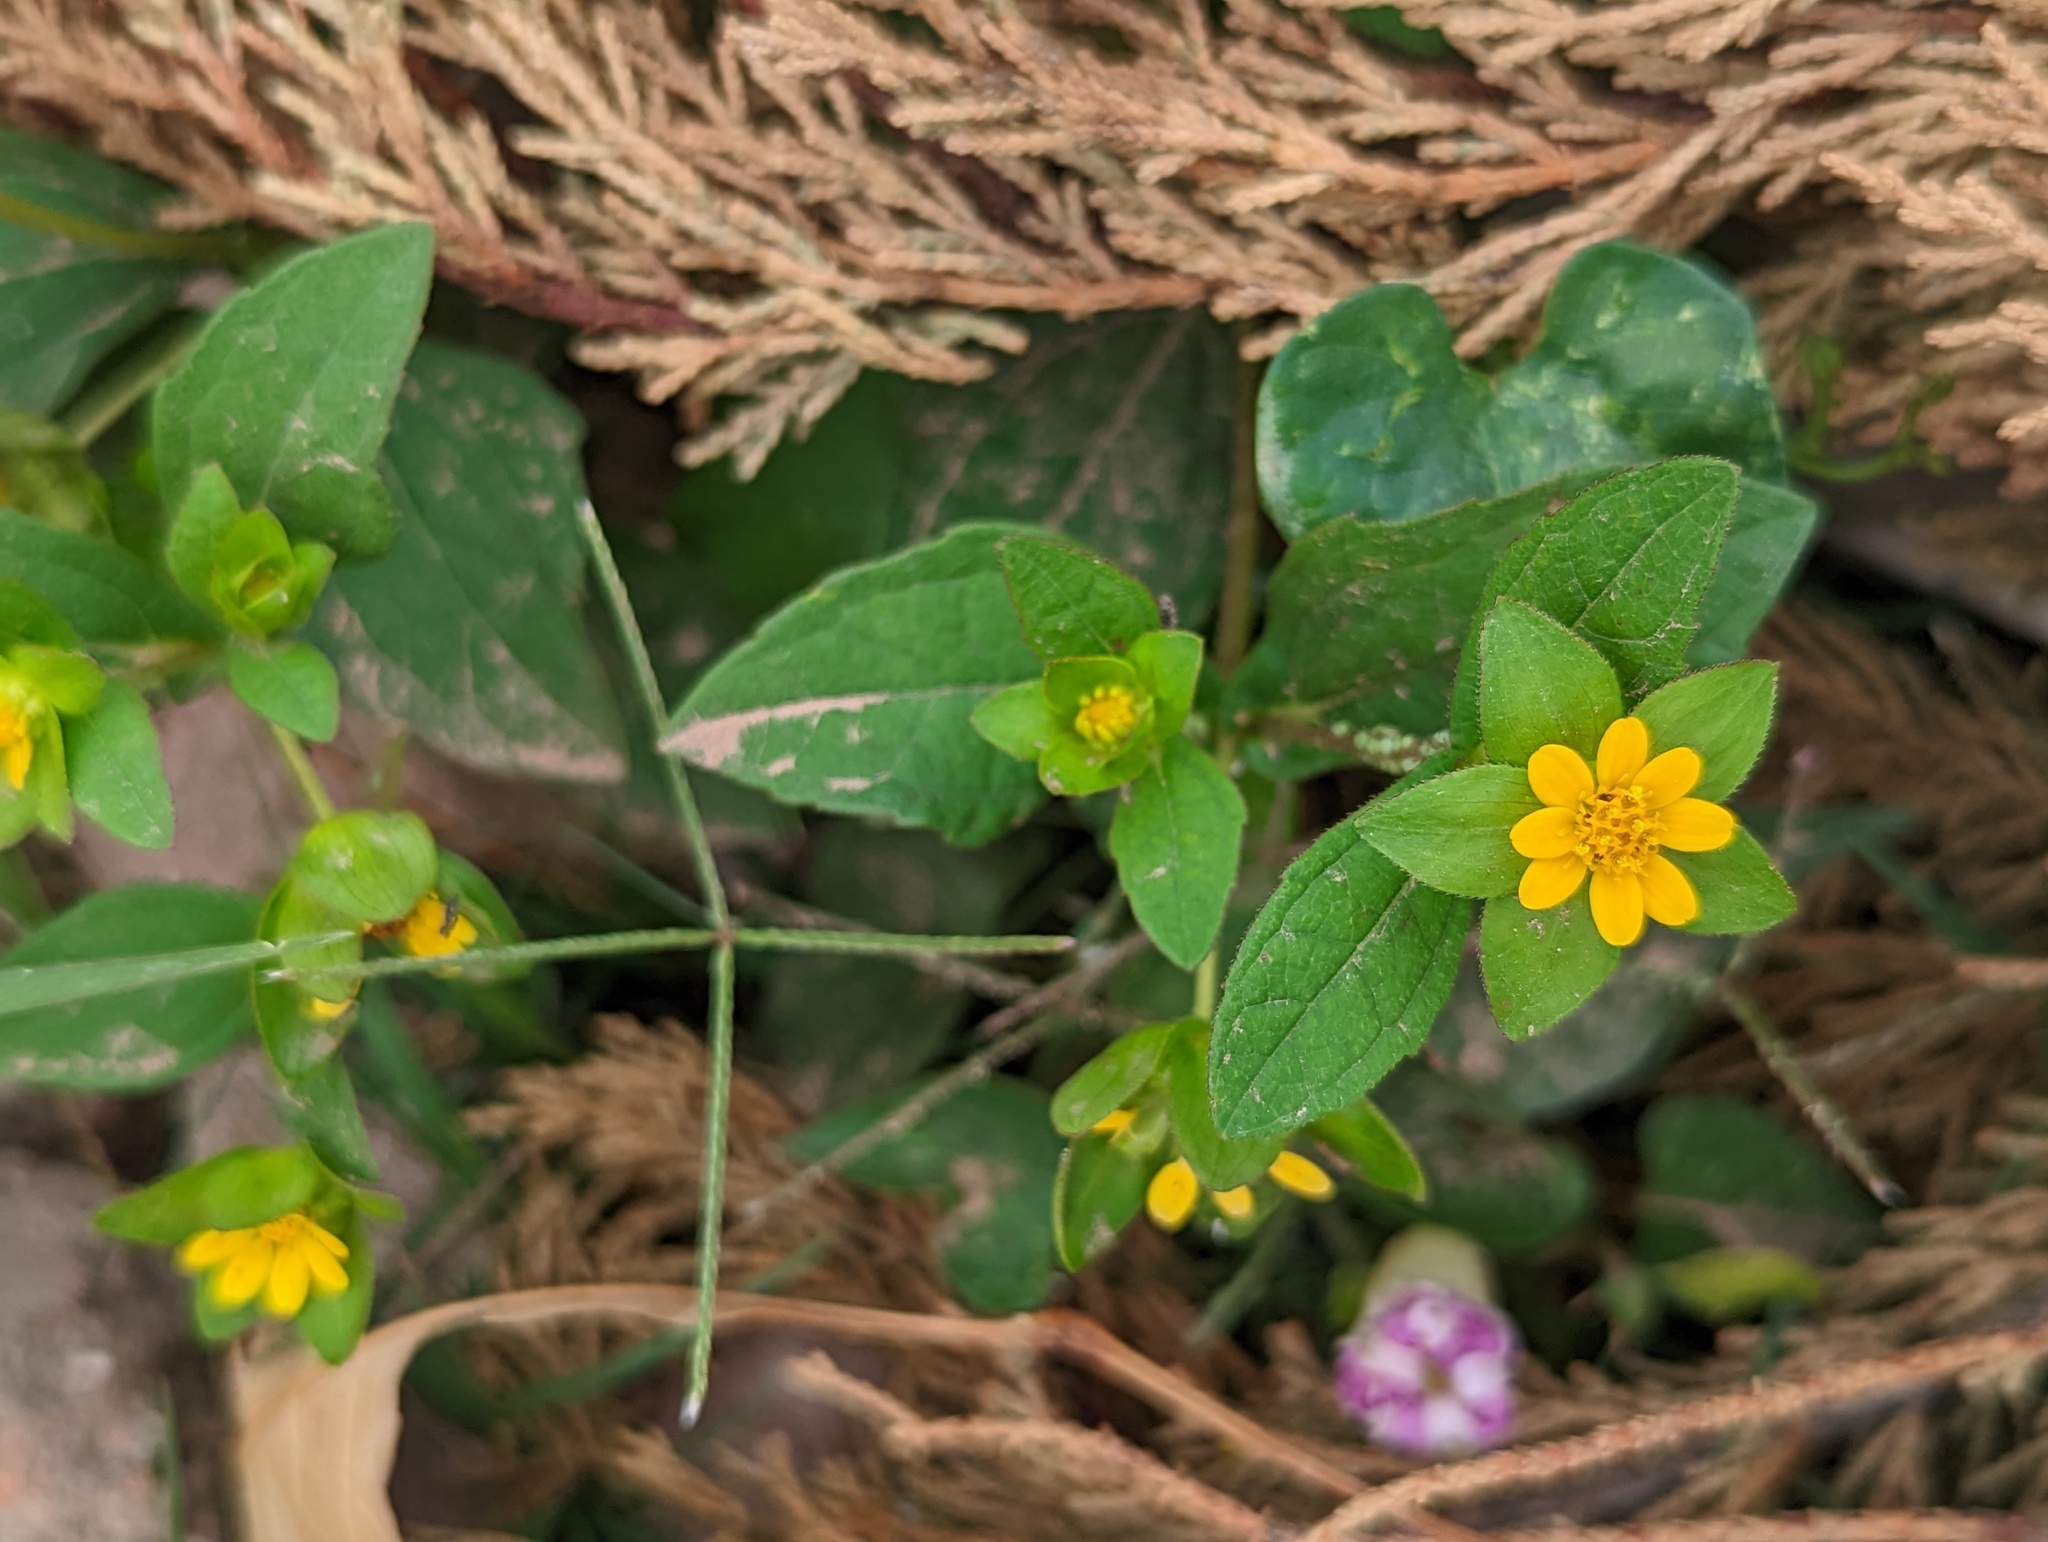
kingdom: Plantae
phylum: Tracheophyta
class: Magnoliopsida
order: Asterales
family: Asteraceae
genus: Melampodium
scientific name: Melampodium perfoliatum
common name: Perfoliate blackfoot
